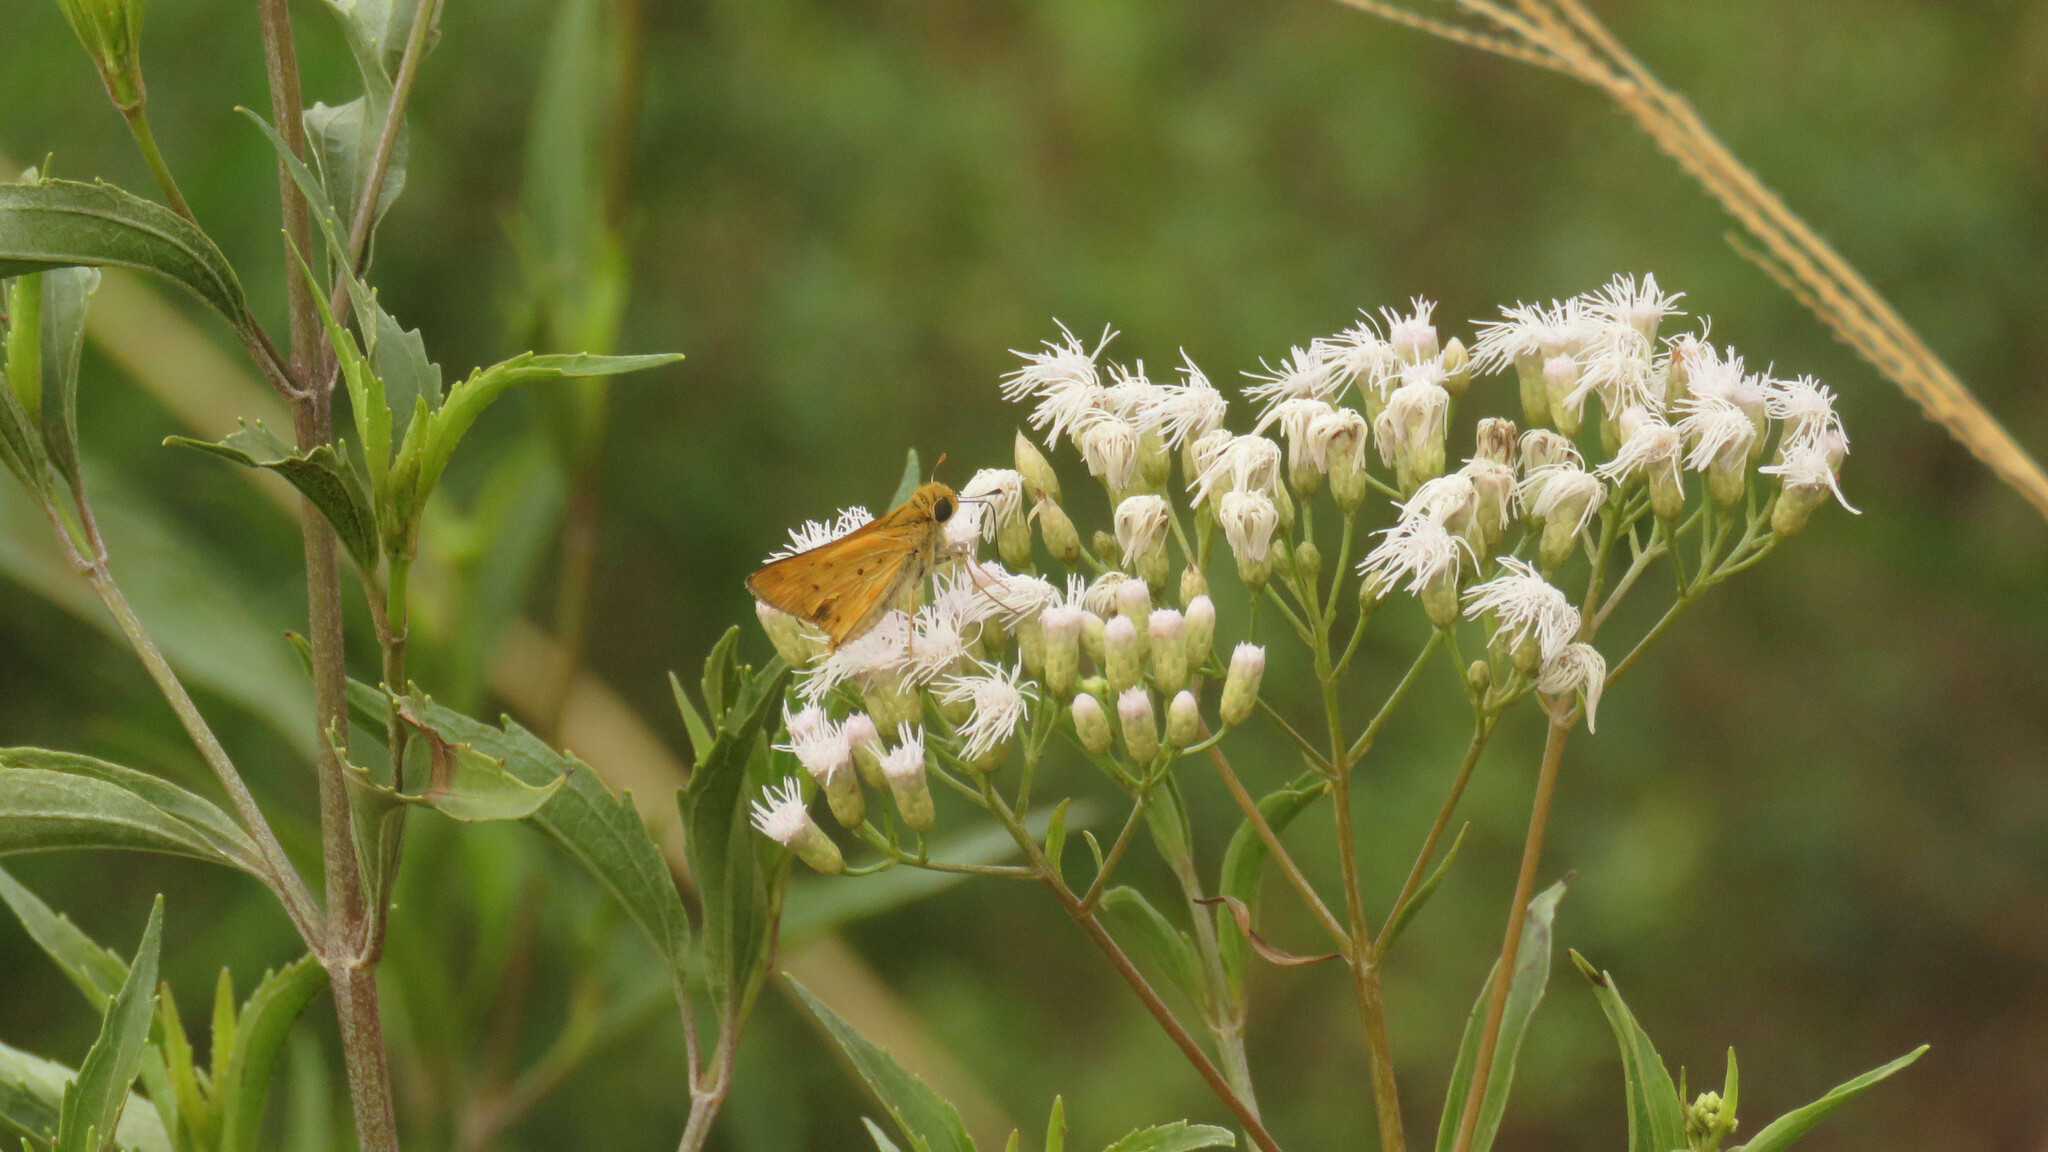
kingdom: Animalia
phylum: Arthropoda
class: Insecta
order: Lepidoptera
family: Hesperiidae
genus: Hylephila
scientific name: Hylephila phyleus
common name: Fiery skipper
